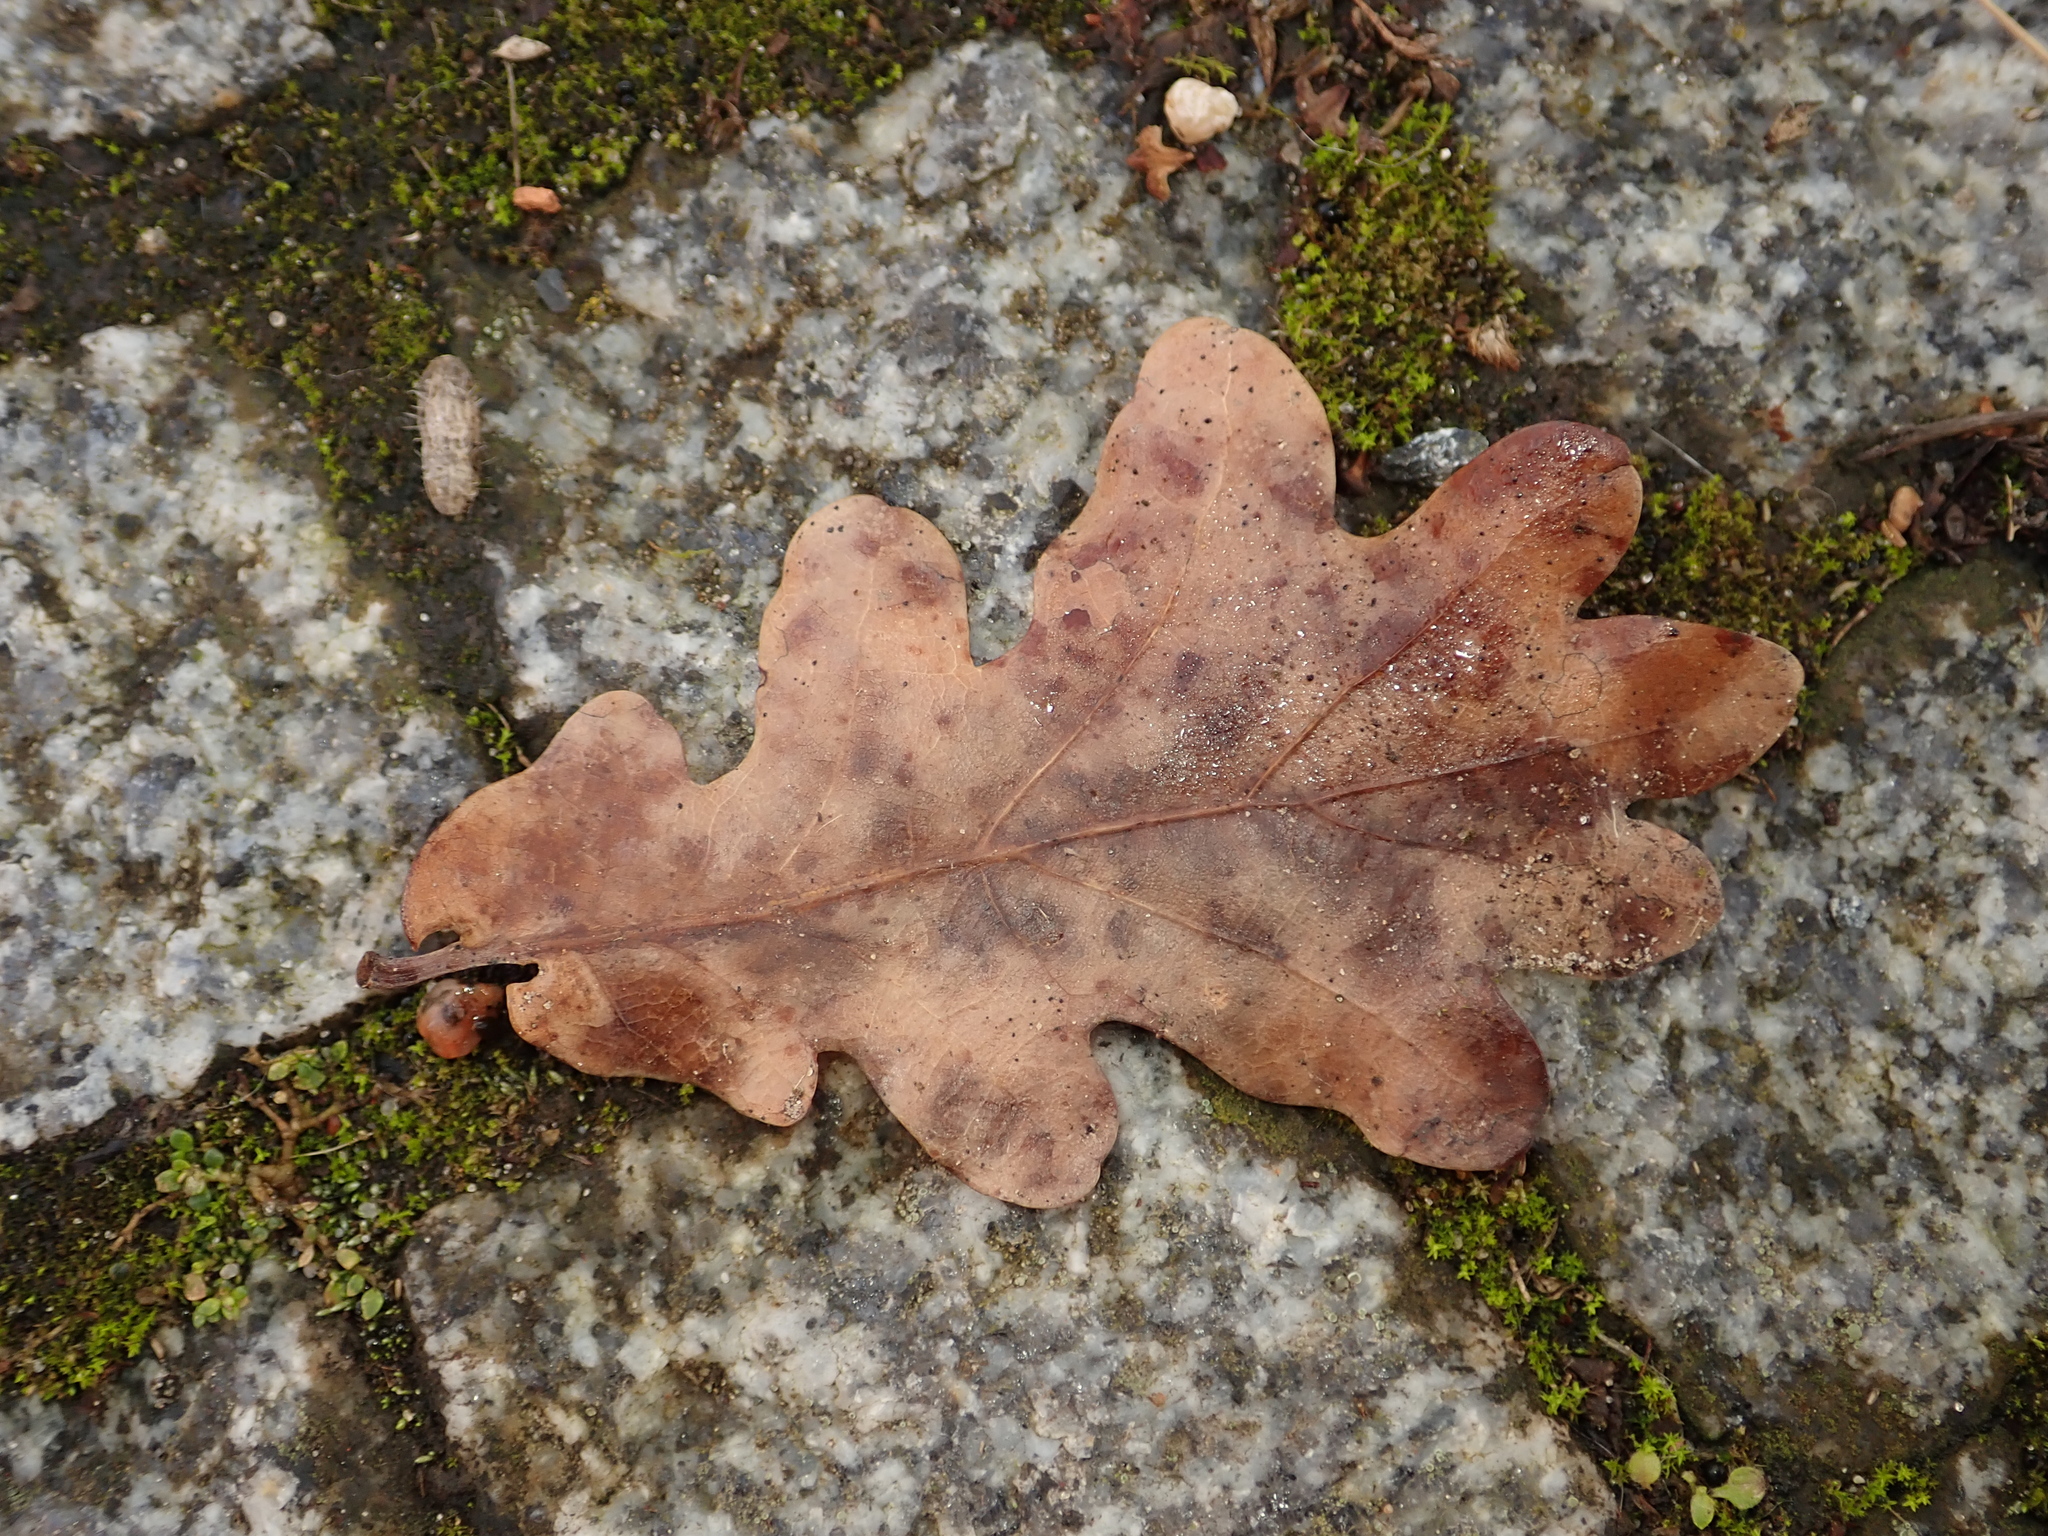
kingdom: Plantae
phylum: Tracheophyta
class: Magnoliopsida
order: Fagales
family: Fagaceae
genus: Quercus
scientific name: Quercus robur
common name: Pedunculate oak
